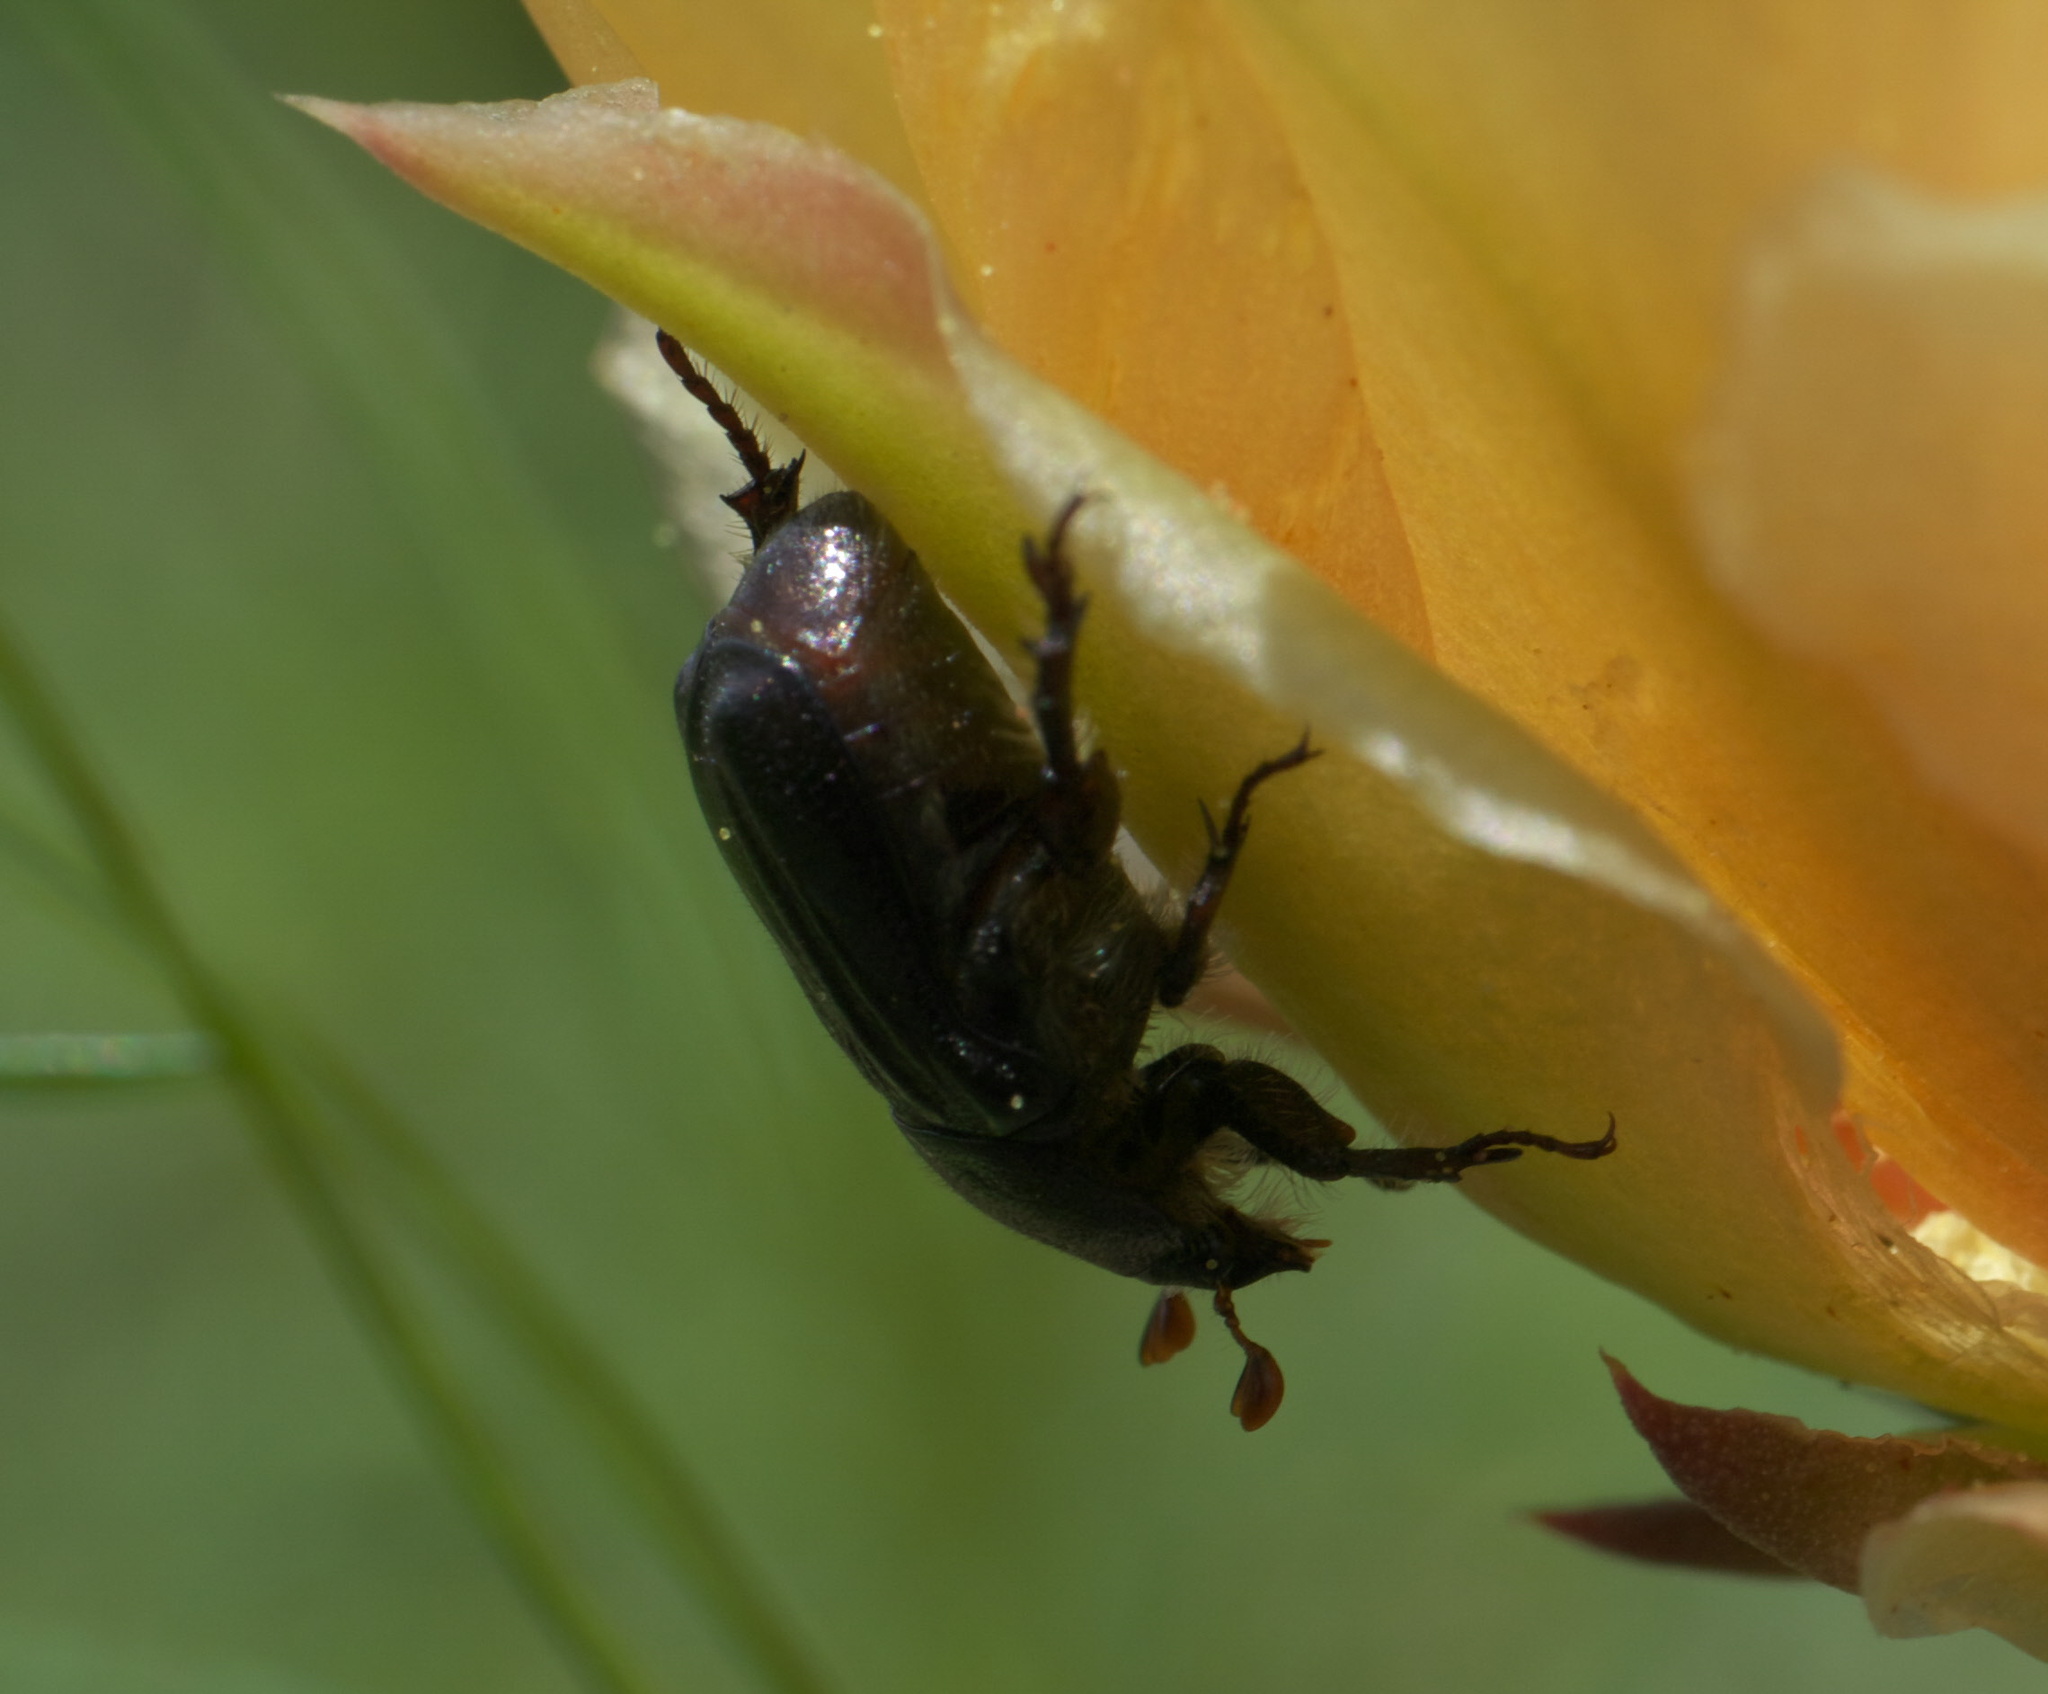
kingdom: Animalia
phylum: Arthropoda
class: Insecta
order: Coleoptera
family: Scarabaeidae
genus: Euphoria
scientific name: Euphoria kernii
